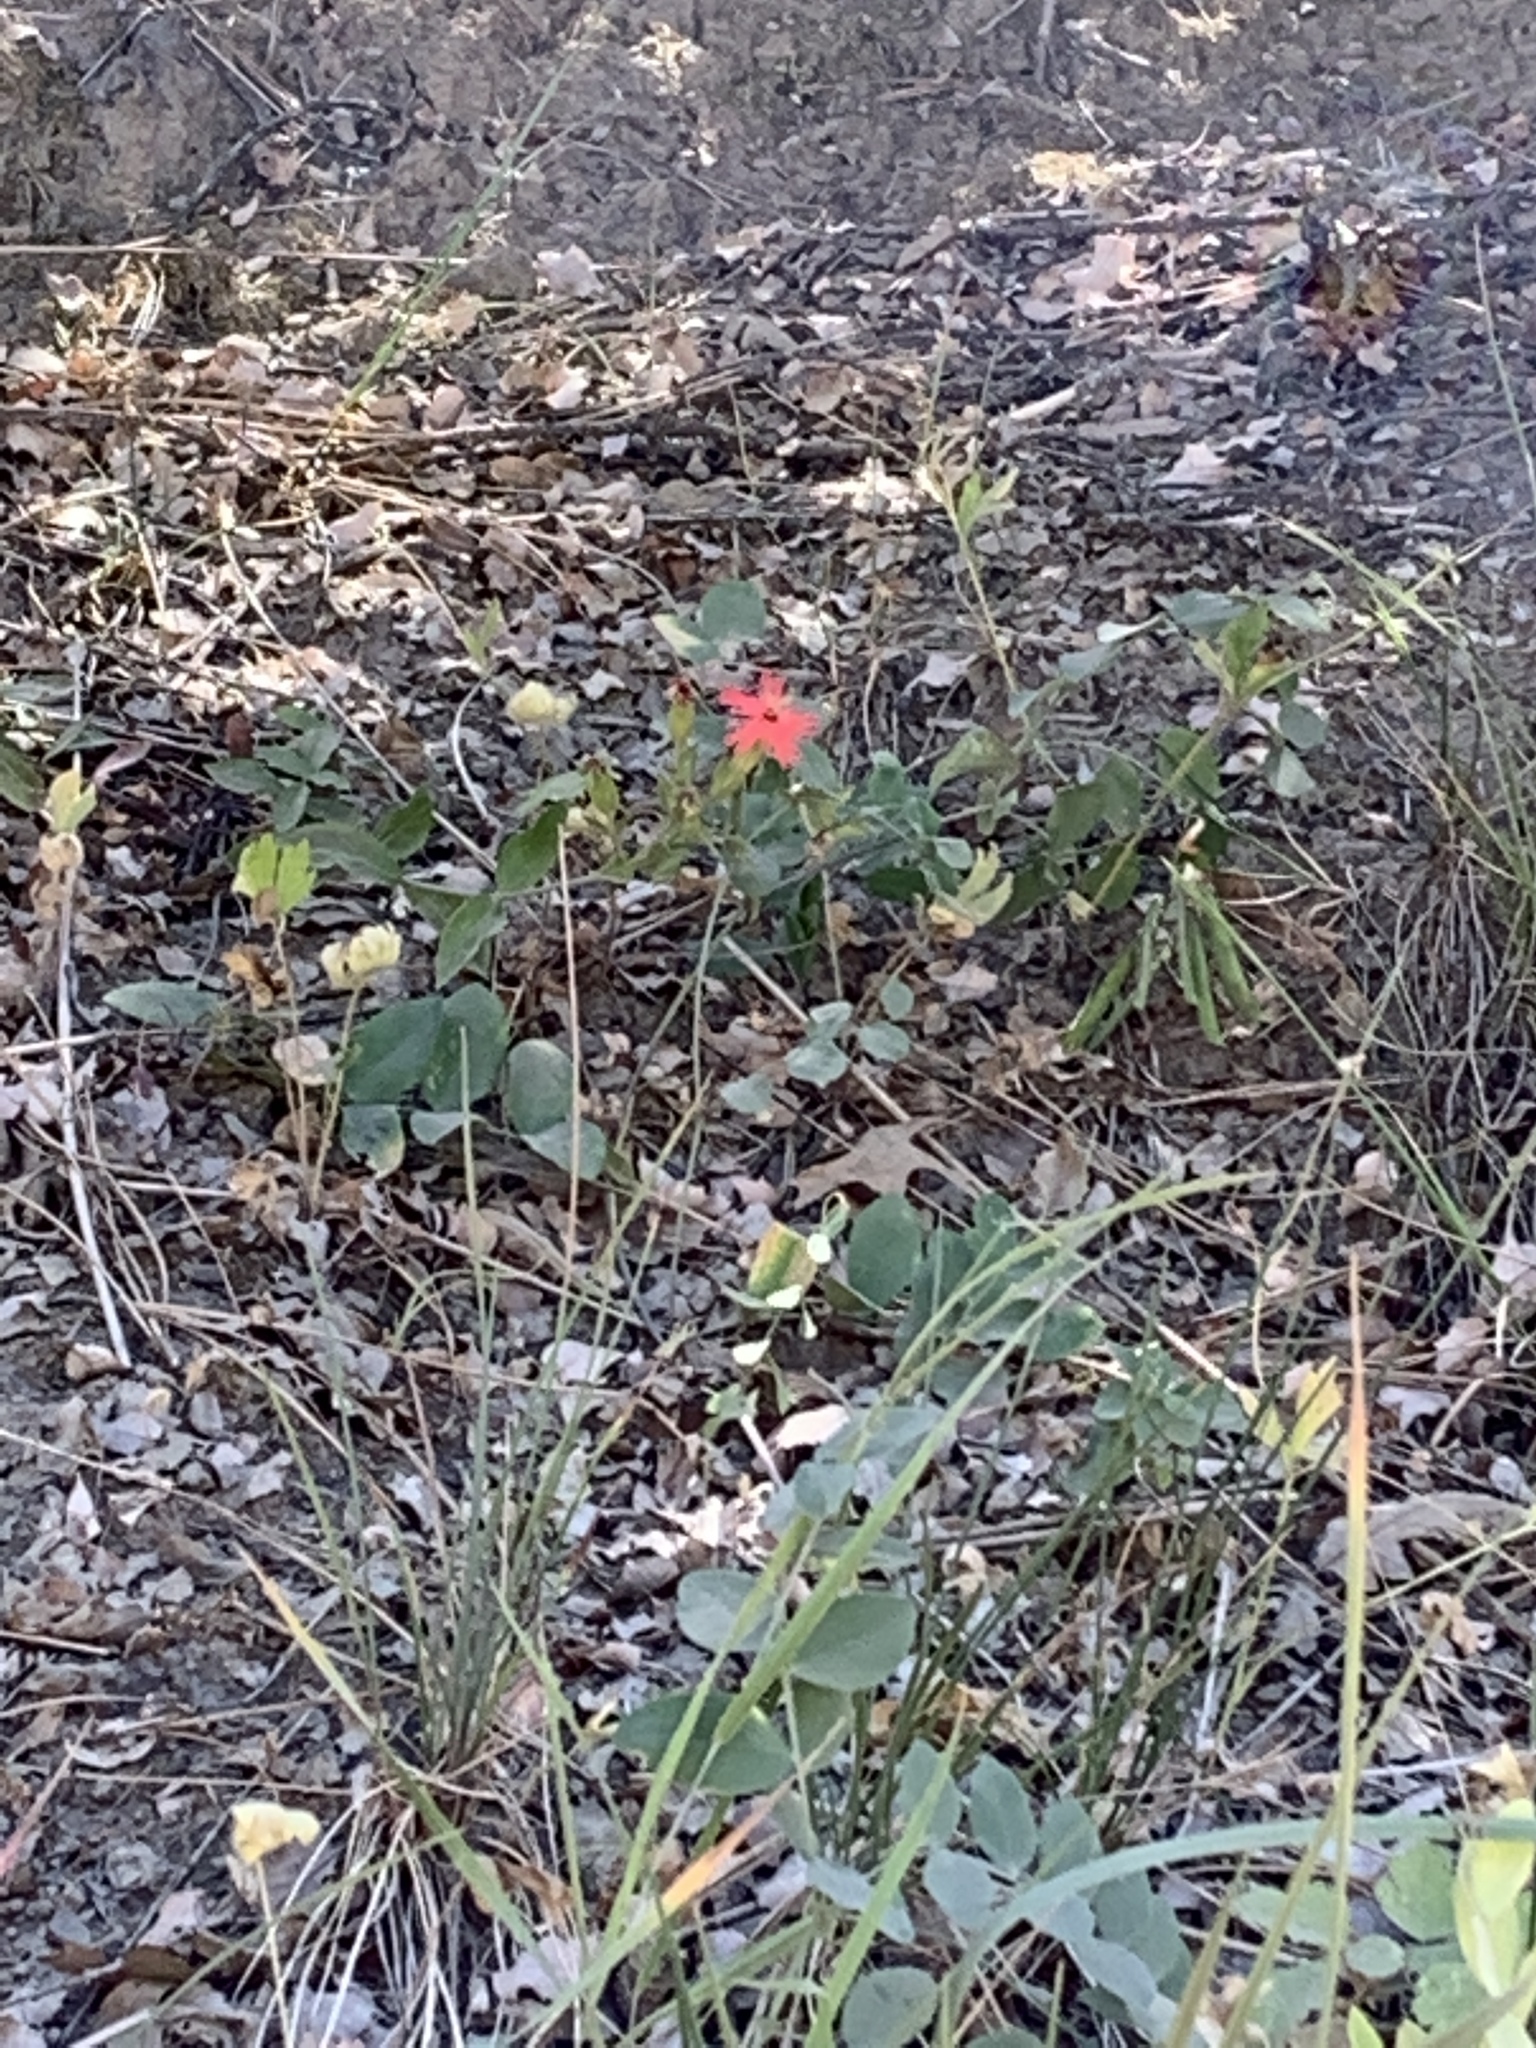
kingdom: Plantae
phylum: Tracheophyta
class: Magnoliopsida
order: Caryophyllales
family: Caryophyllaceae
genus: Silene
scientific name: Silene laciniata
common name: Indian-pink
